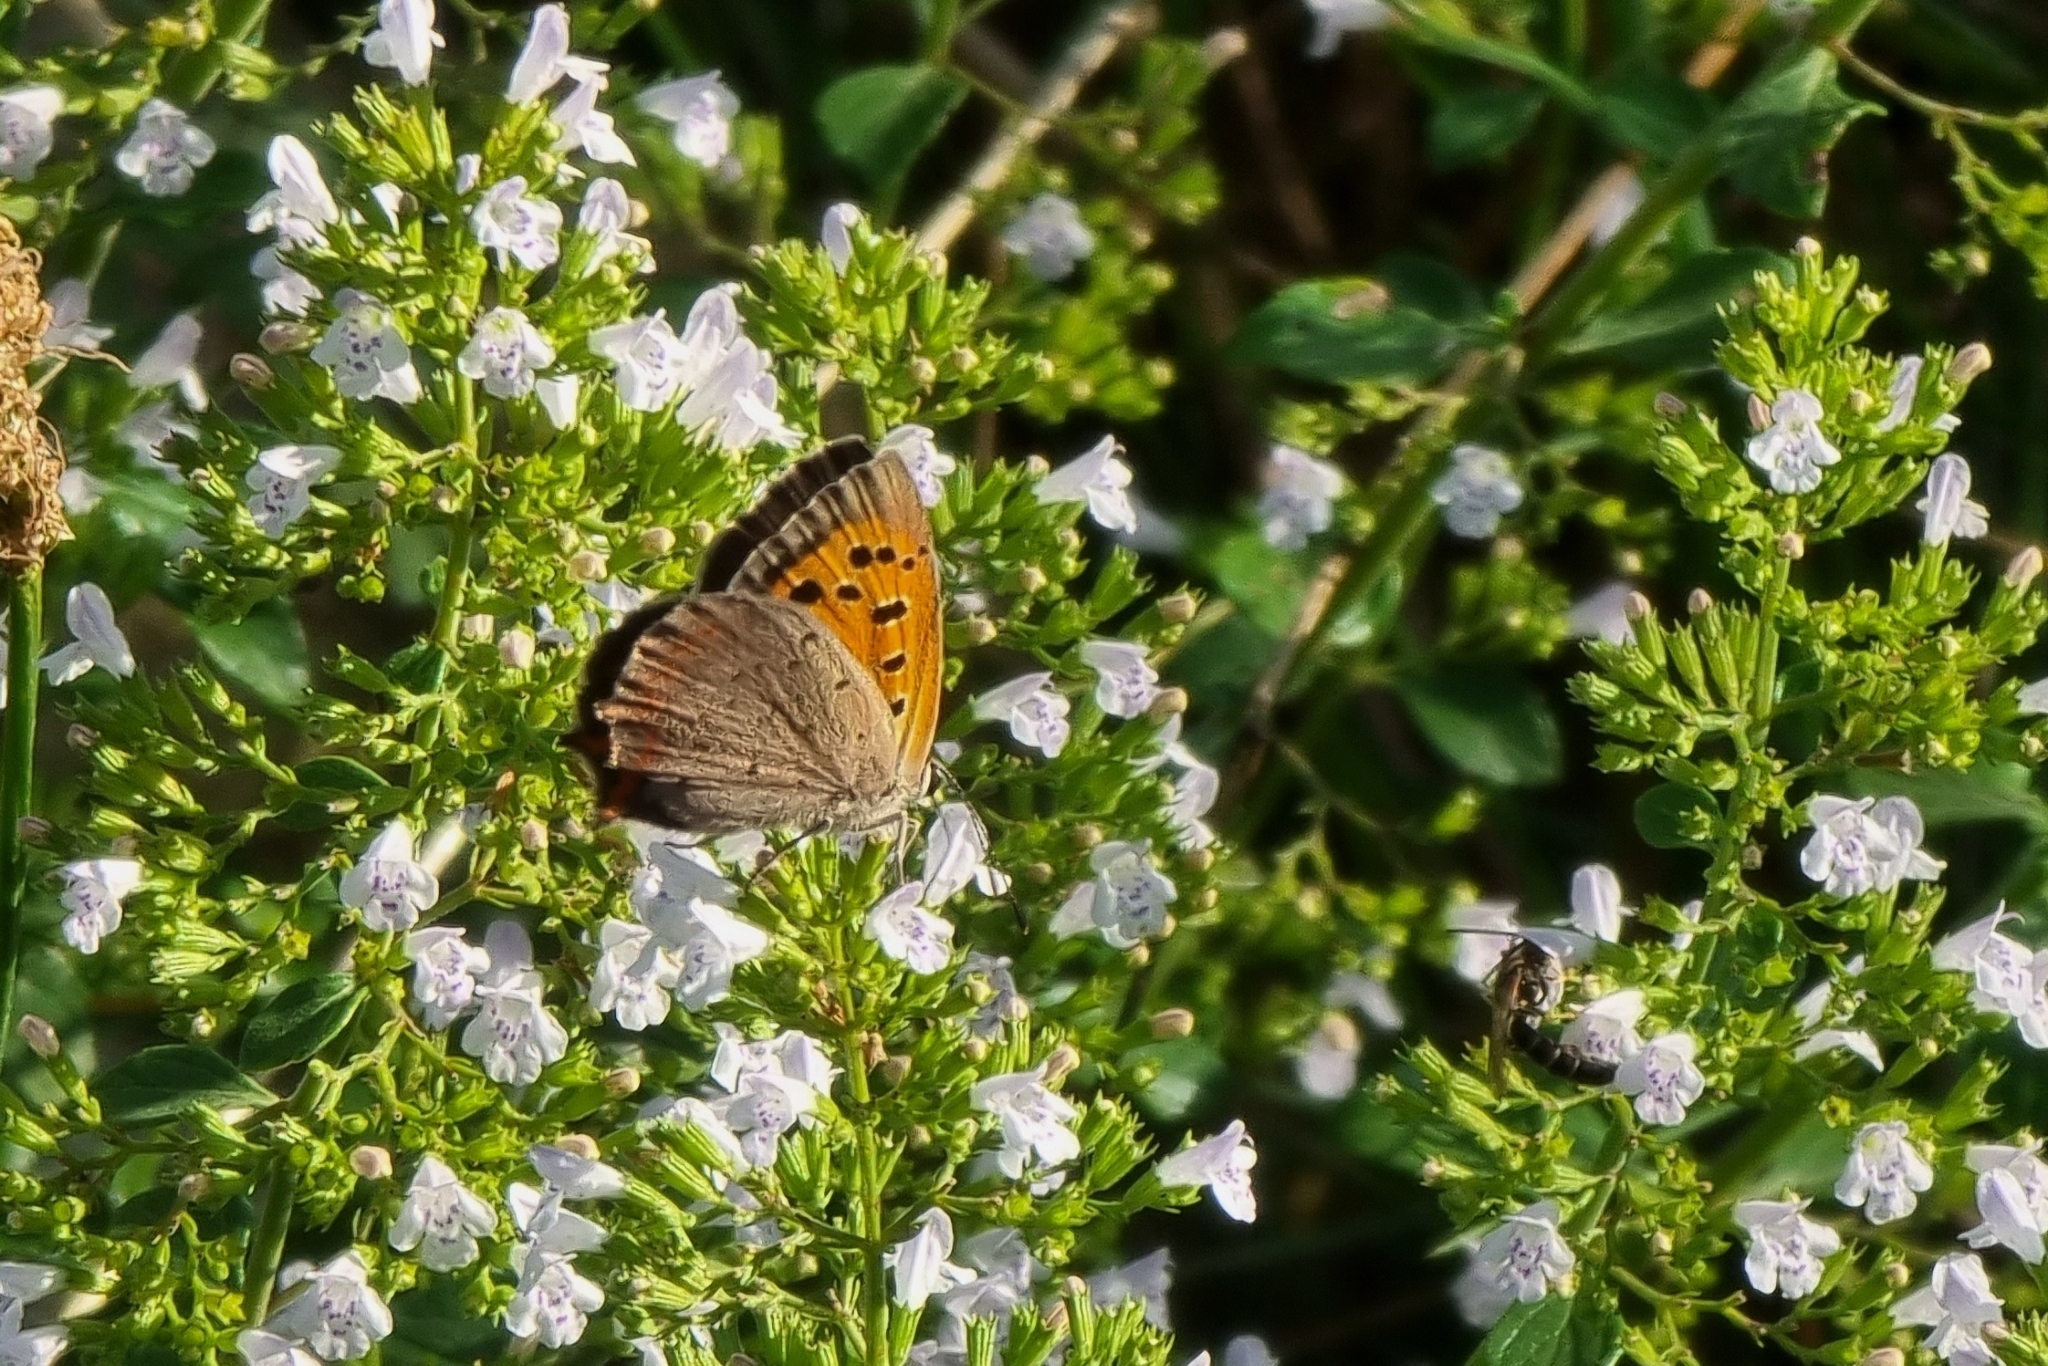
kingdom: Animalia
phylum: Arthropoda
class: Insecta
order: Lepidoptera
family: Lycaenidae
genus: Lycaena
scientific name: Lycaena phlaeas
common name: Small copper
